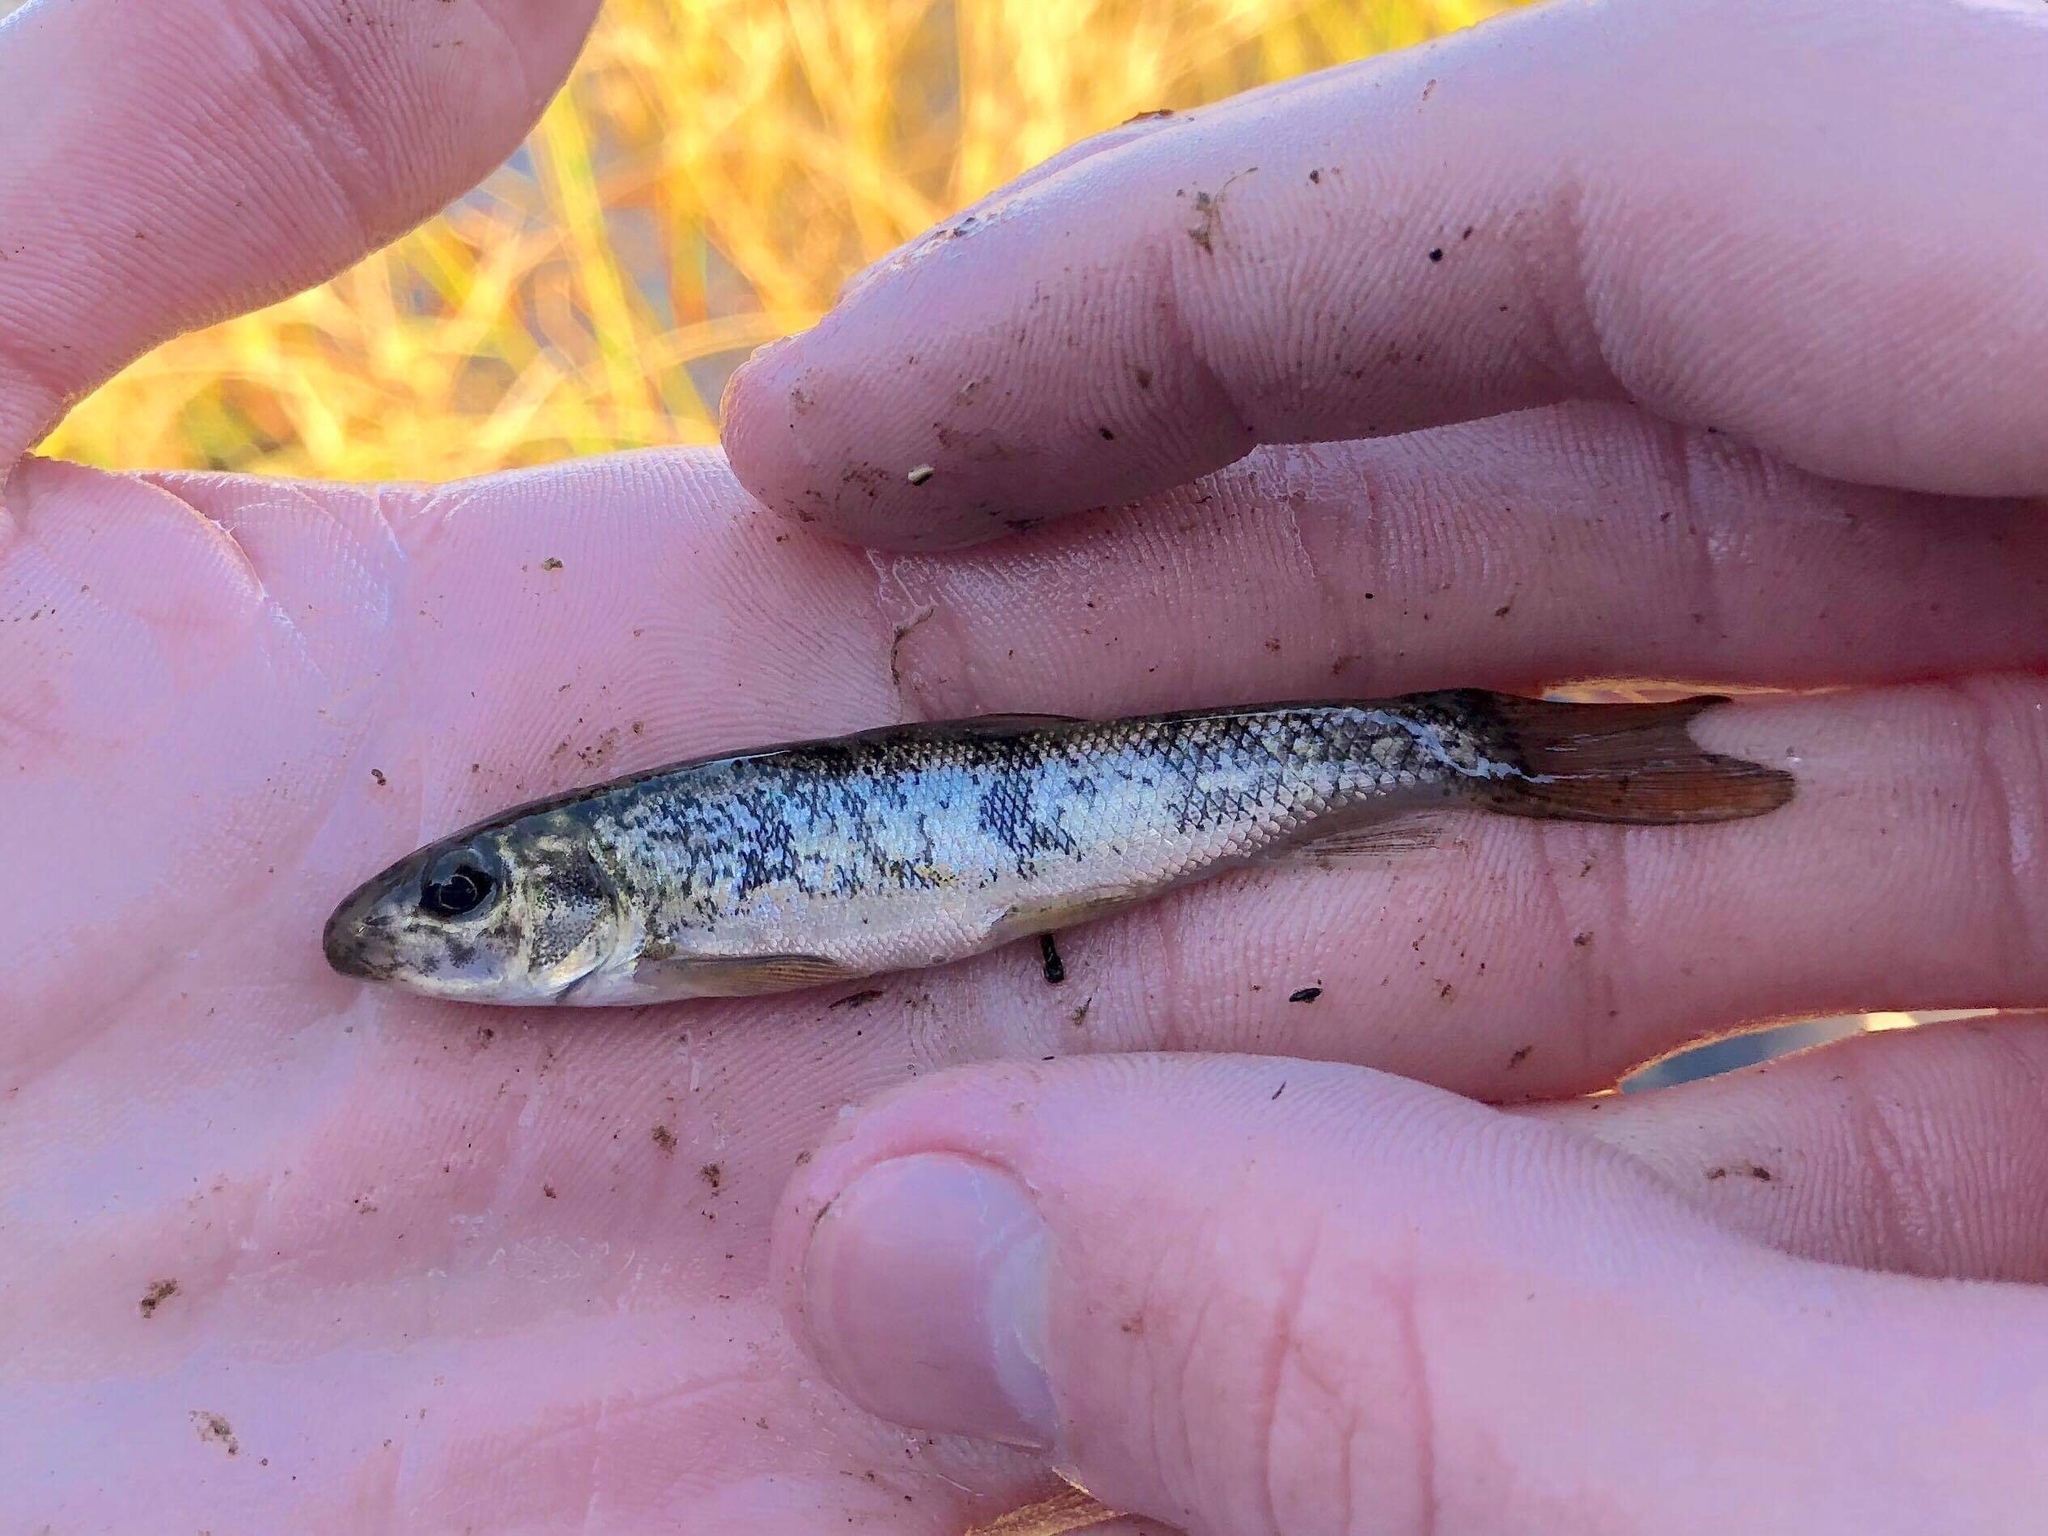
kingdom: Animalia
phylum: Chordata
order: Cypriniformes
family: Catostomidae
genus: Catostomus
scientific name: Catostomus commersonii
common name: White sucker
